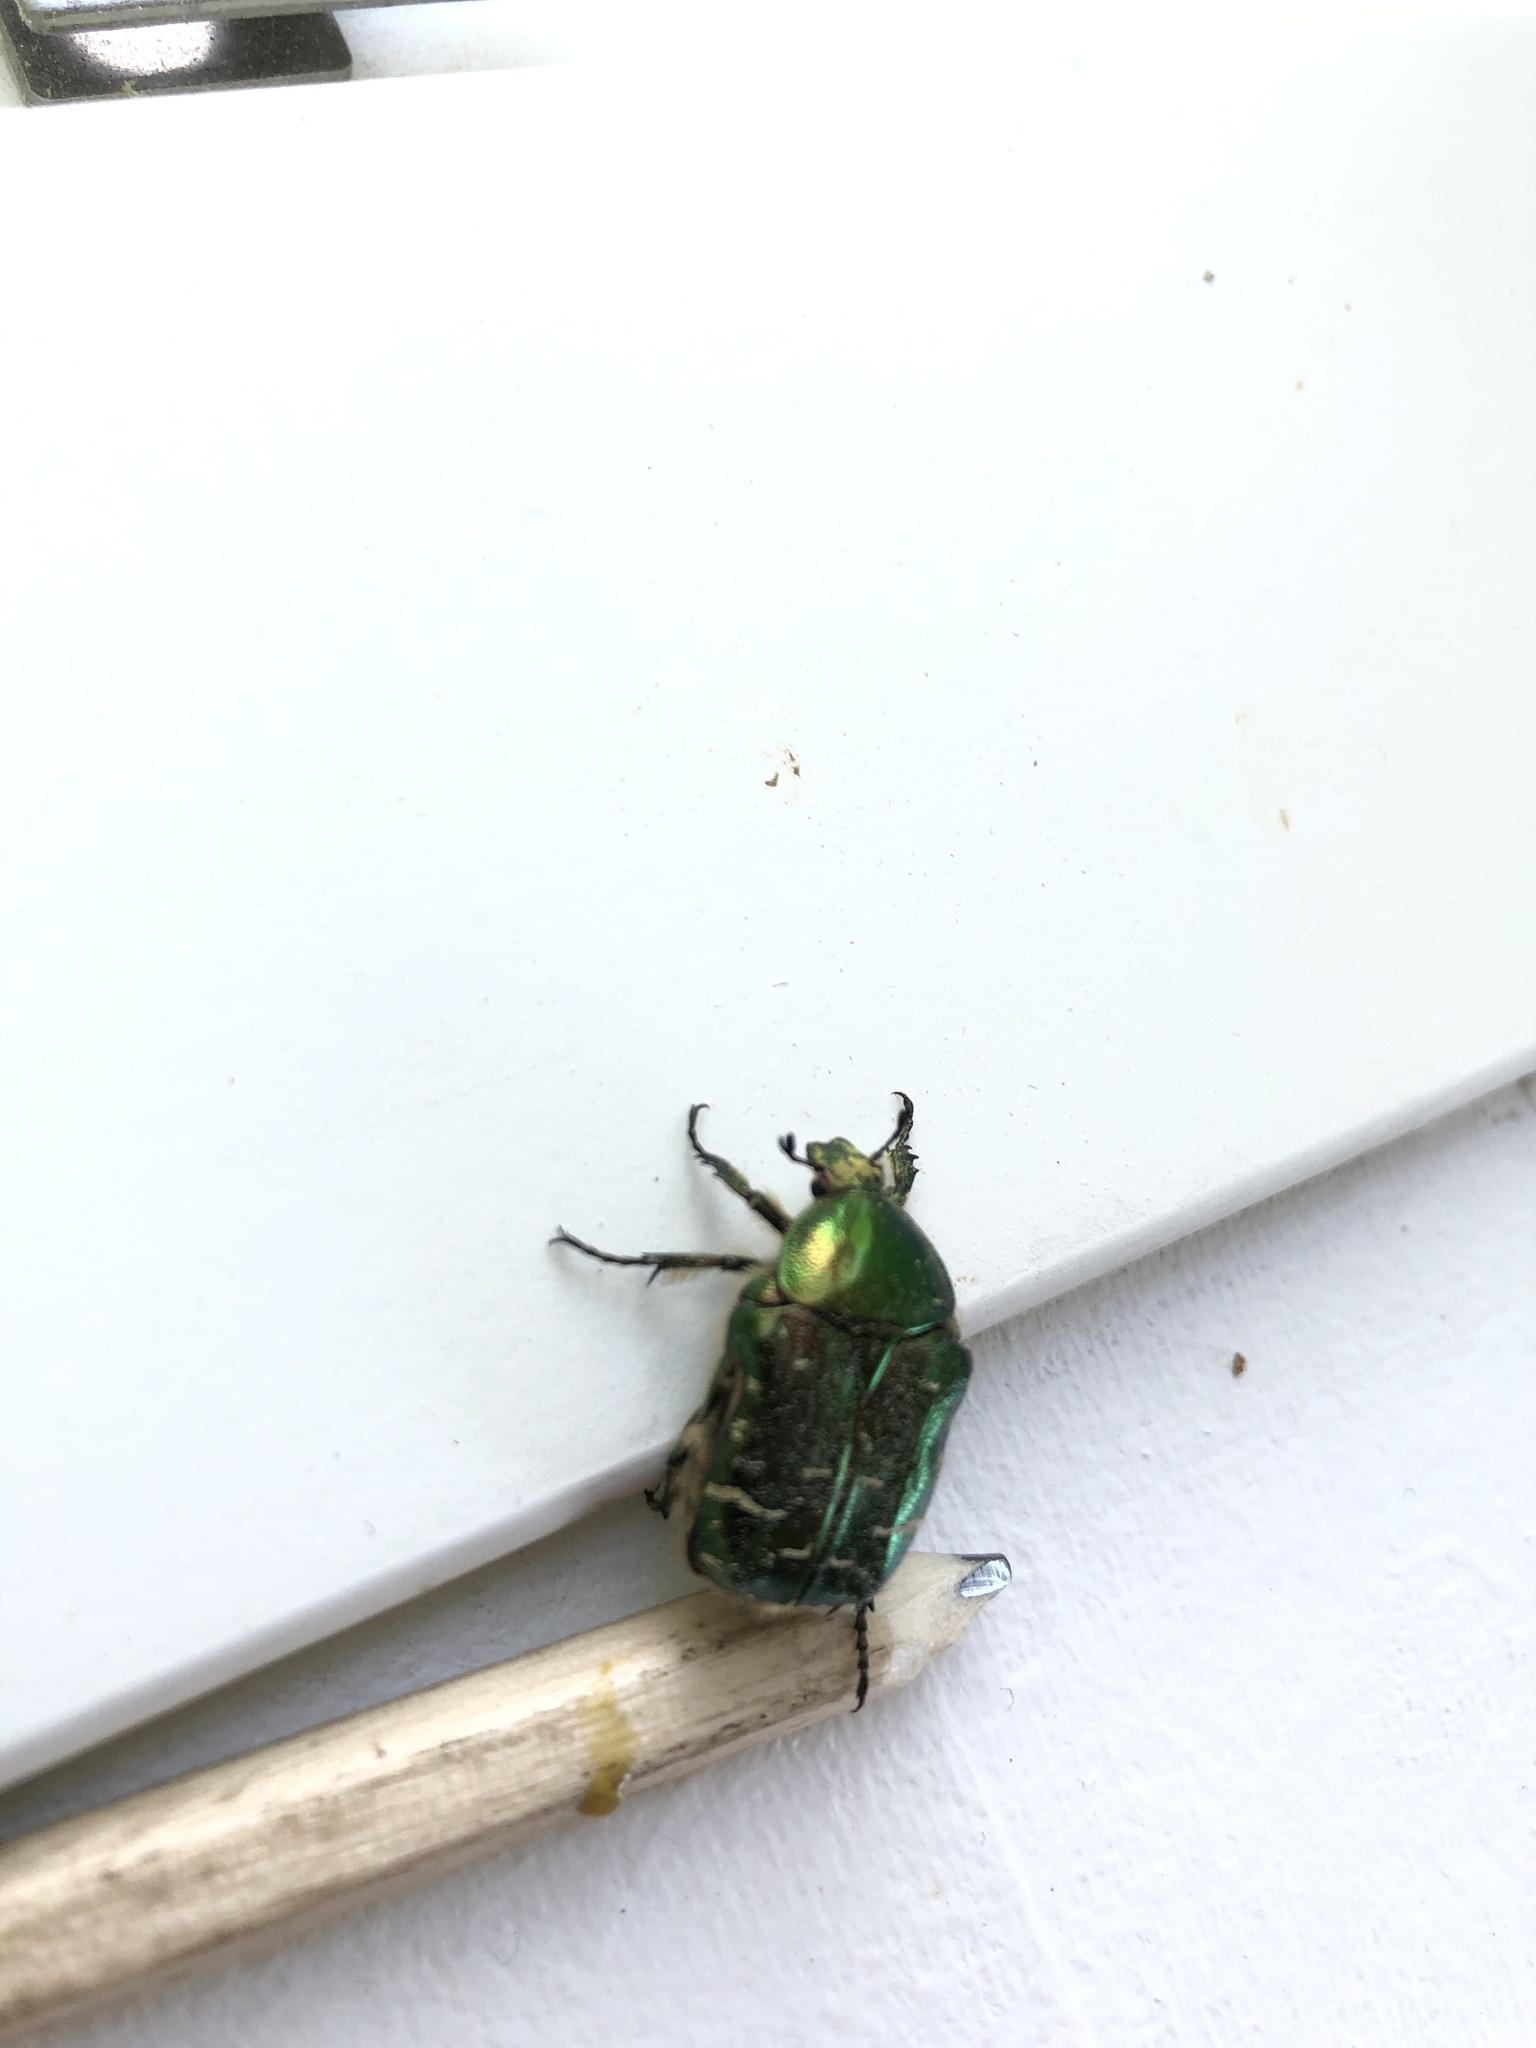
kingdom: Animalia
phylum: Arthropoda
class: Insecta
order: Coleoptera
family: Scarabaeidae
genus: Cetonia
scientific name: Cetonia aurata
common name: Rose chafer
